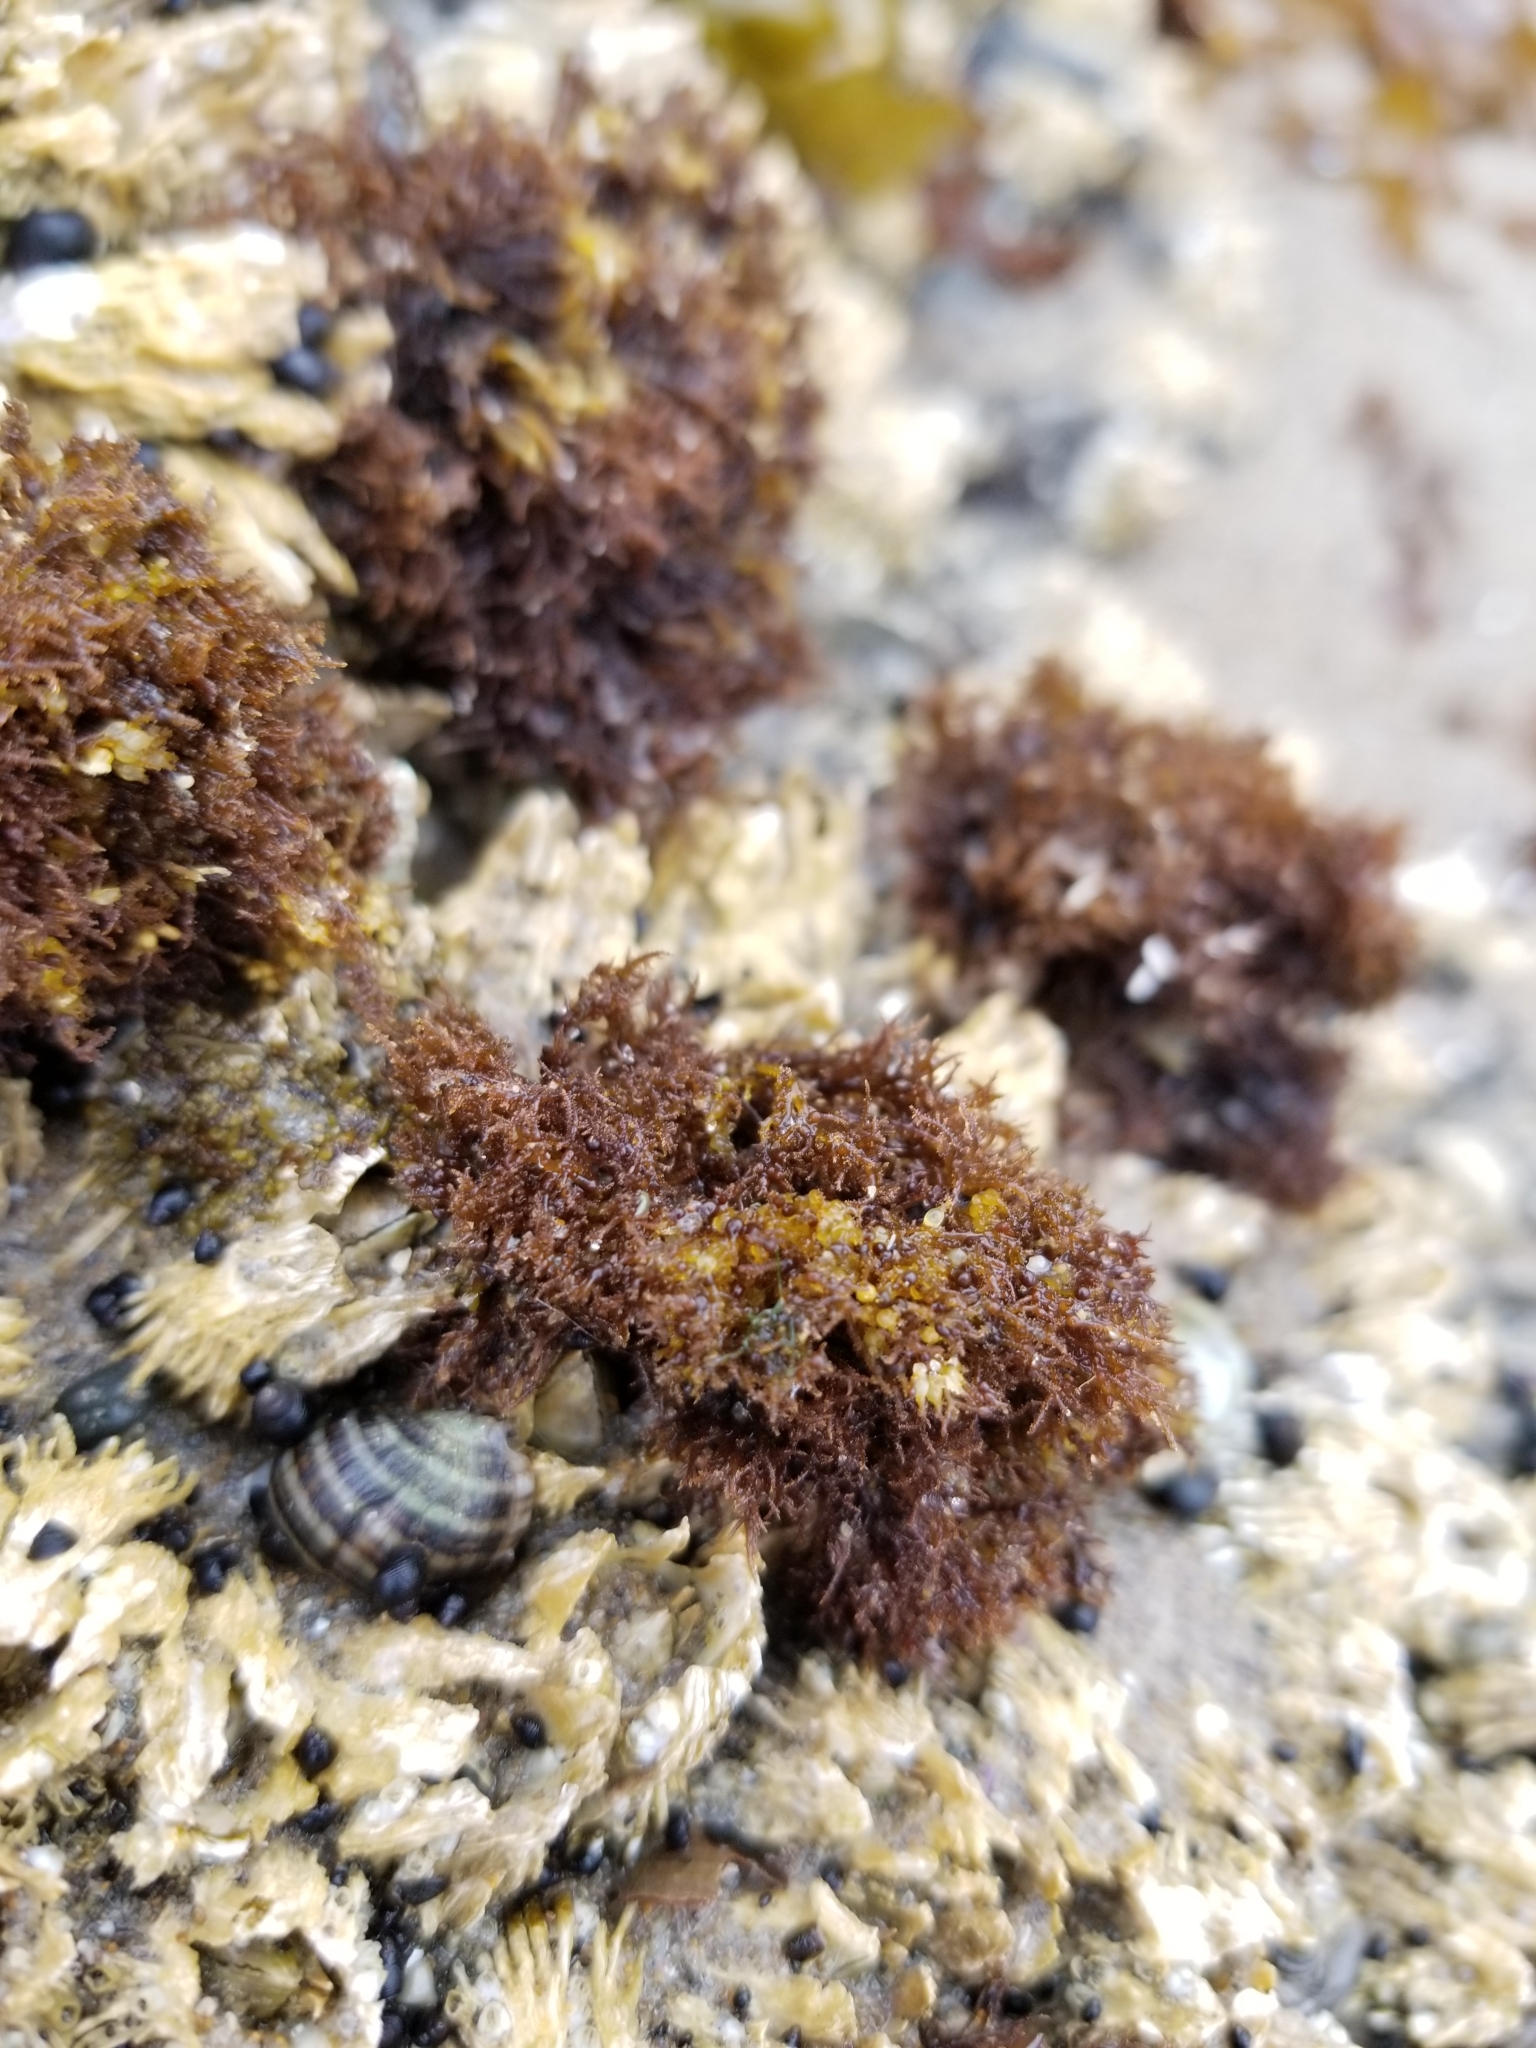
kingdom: Plantae
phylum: Rhodophyta
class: Florideophyceae
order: Gigartinales
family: Endocladiaceae
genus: Endocladia
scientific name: Endocladia muricata
